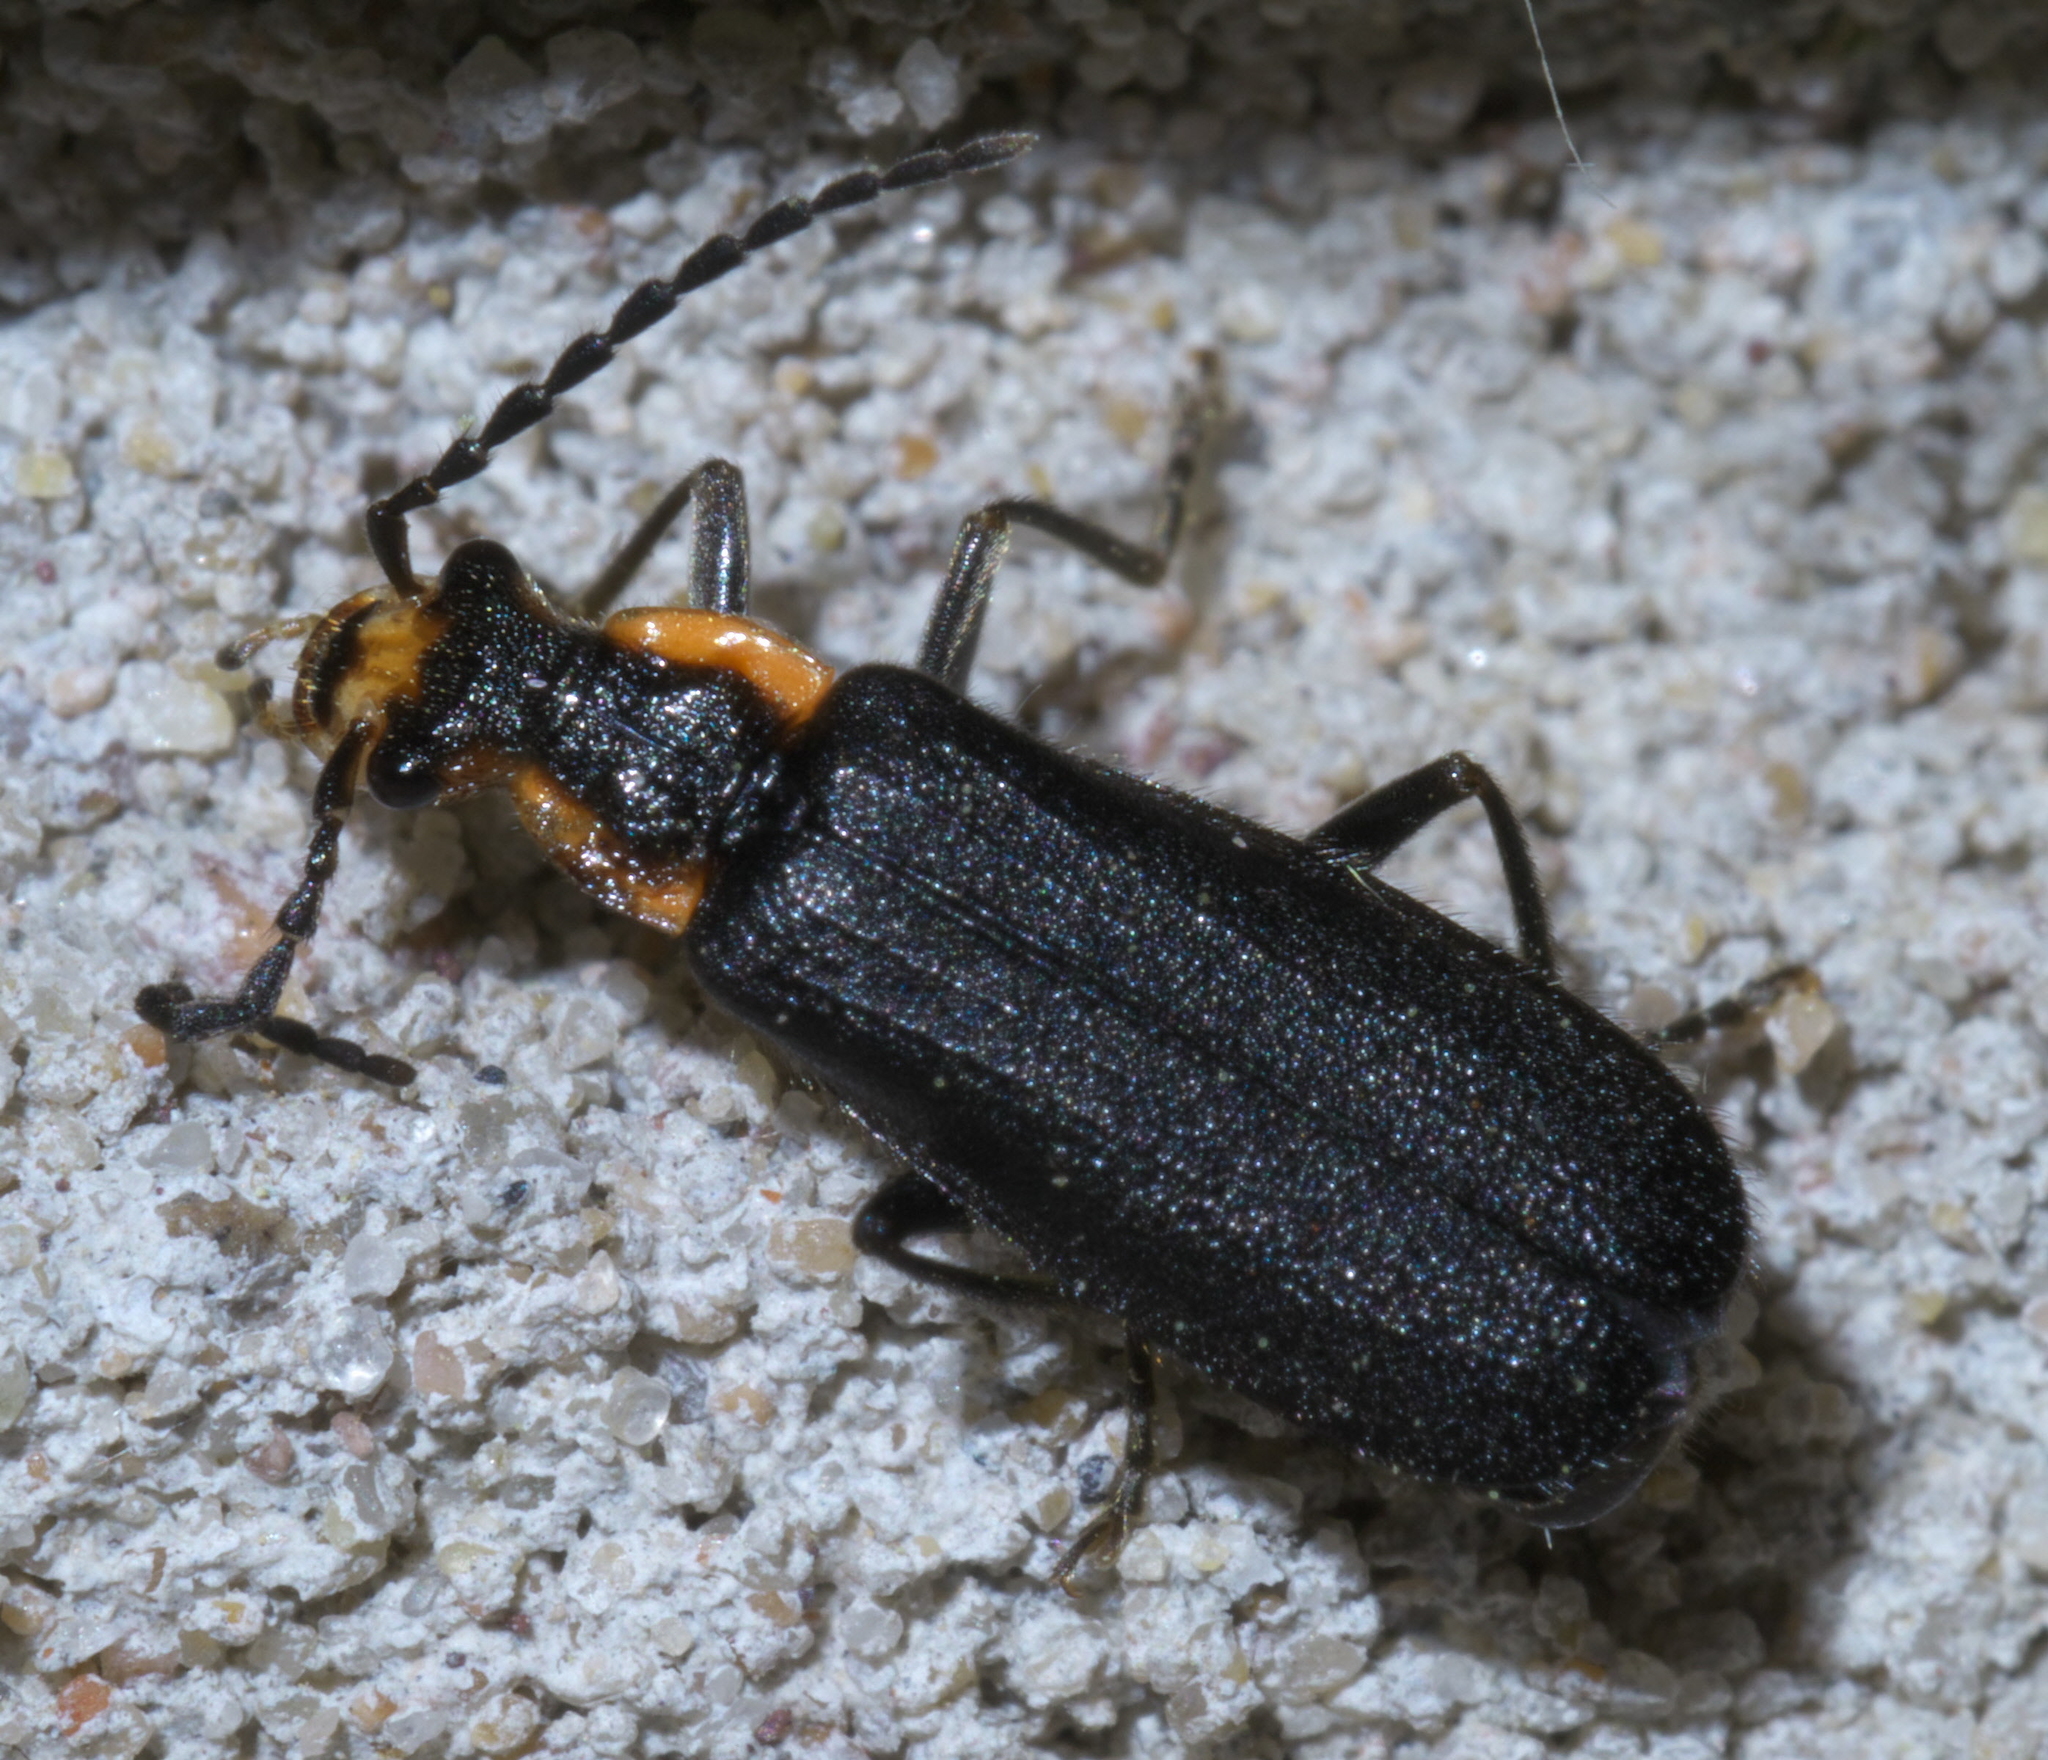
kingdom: Animalia
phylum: Arthropoda
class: Insecta
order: Coleoptera
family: Cantharidae
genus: Podabrus
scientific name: Podabrus rugosulus
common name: Wrinkled soldier beetle
